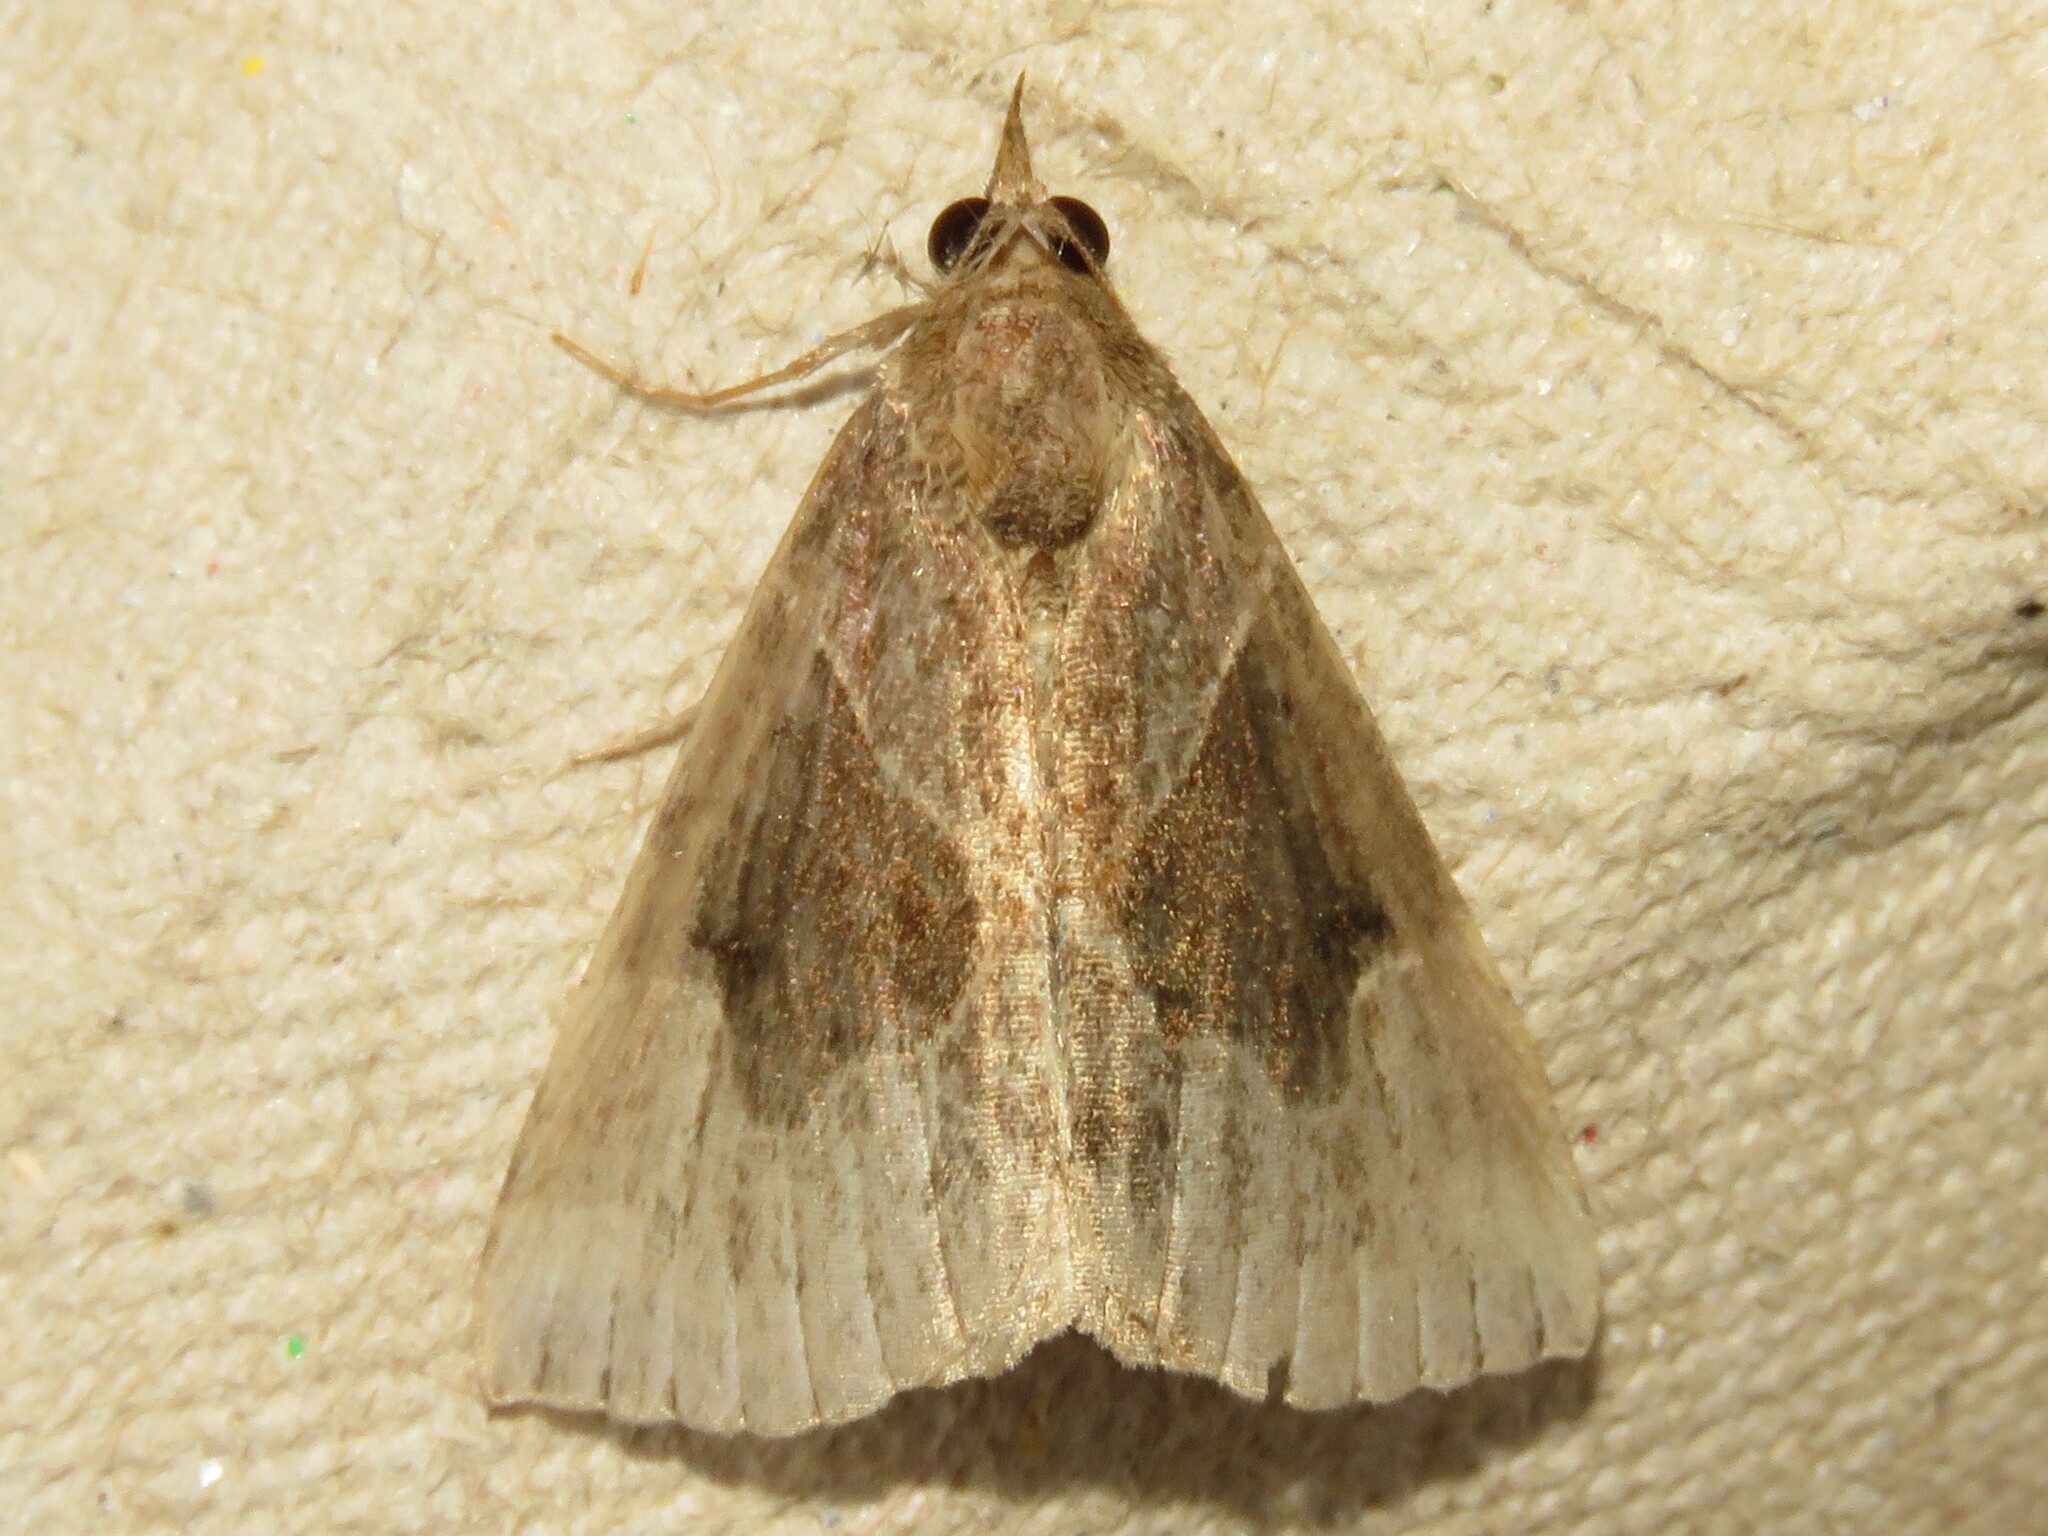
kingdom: Animalia
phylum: Arthropoda
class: Insecta
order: Lepidoptera
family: Erebidae
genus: Hypena
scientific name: Hypena manalis
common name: Flowing-line bomolocha moth
